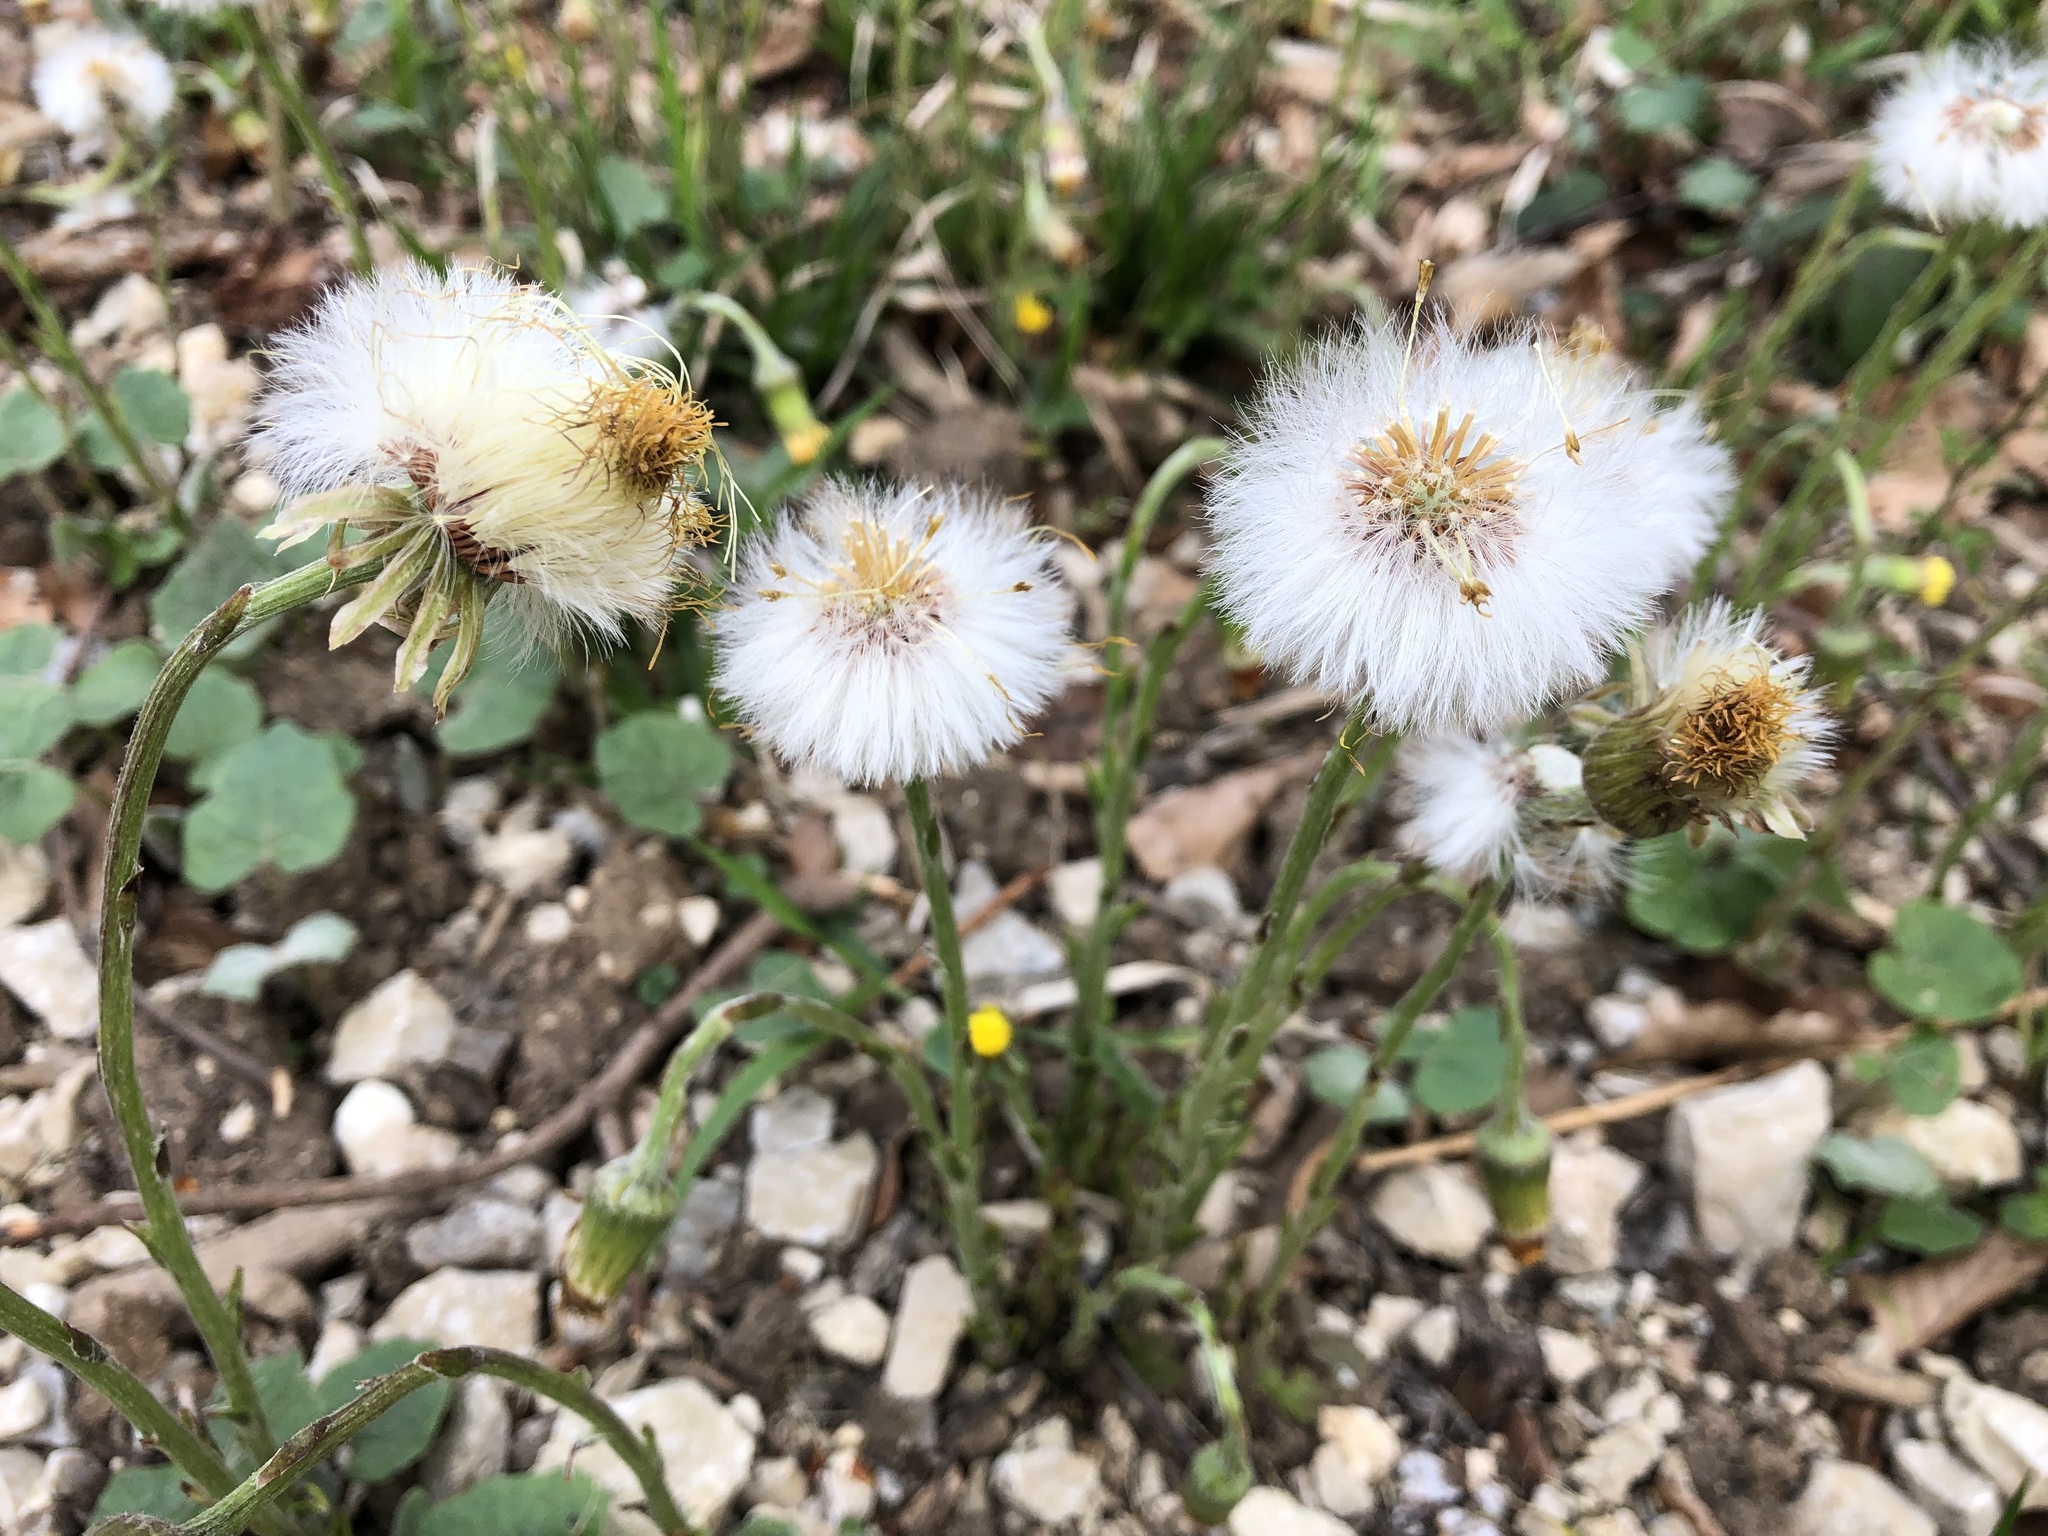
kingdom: Plantae
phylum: Tracheophyta
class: Magnoliopsida
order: Asterales
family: Asteraceae
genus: Tussilago
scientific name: Tussilago farfara
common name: Coltsfoot
